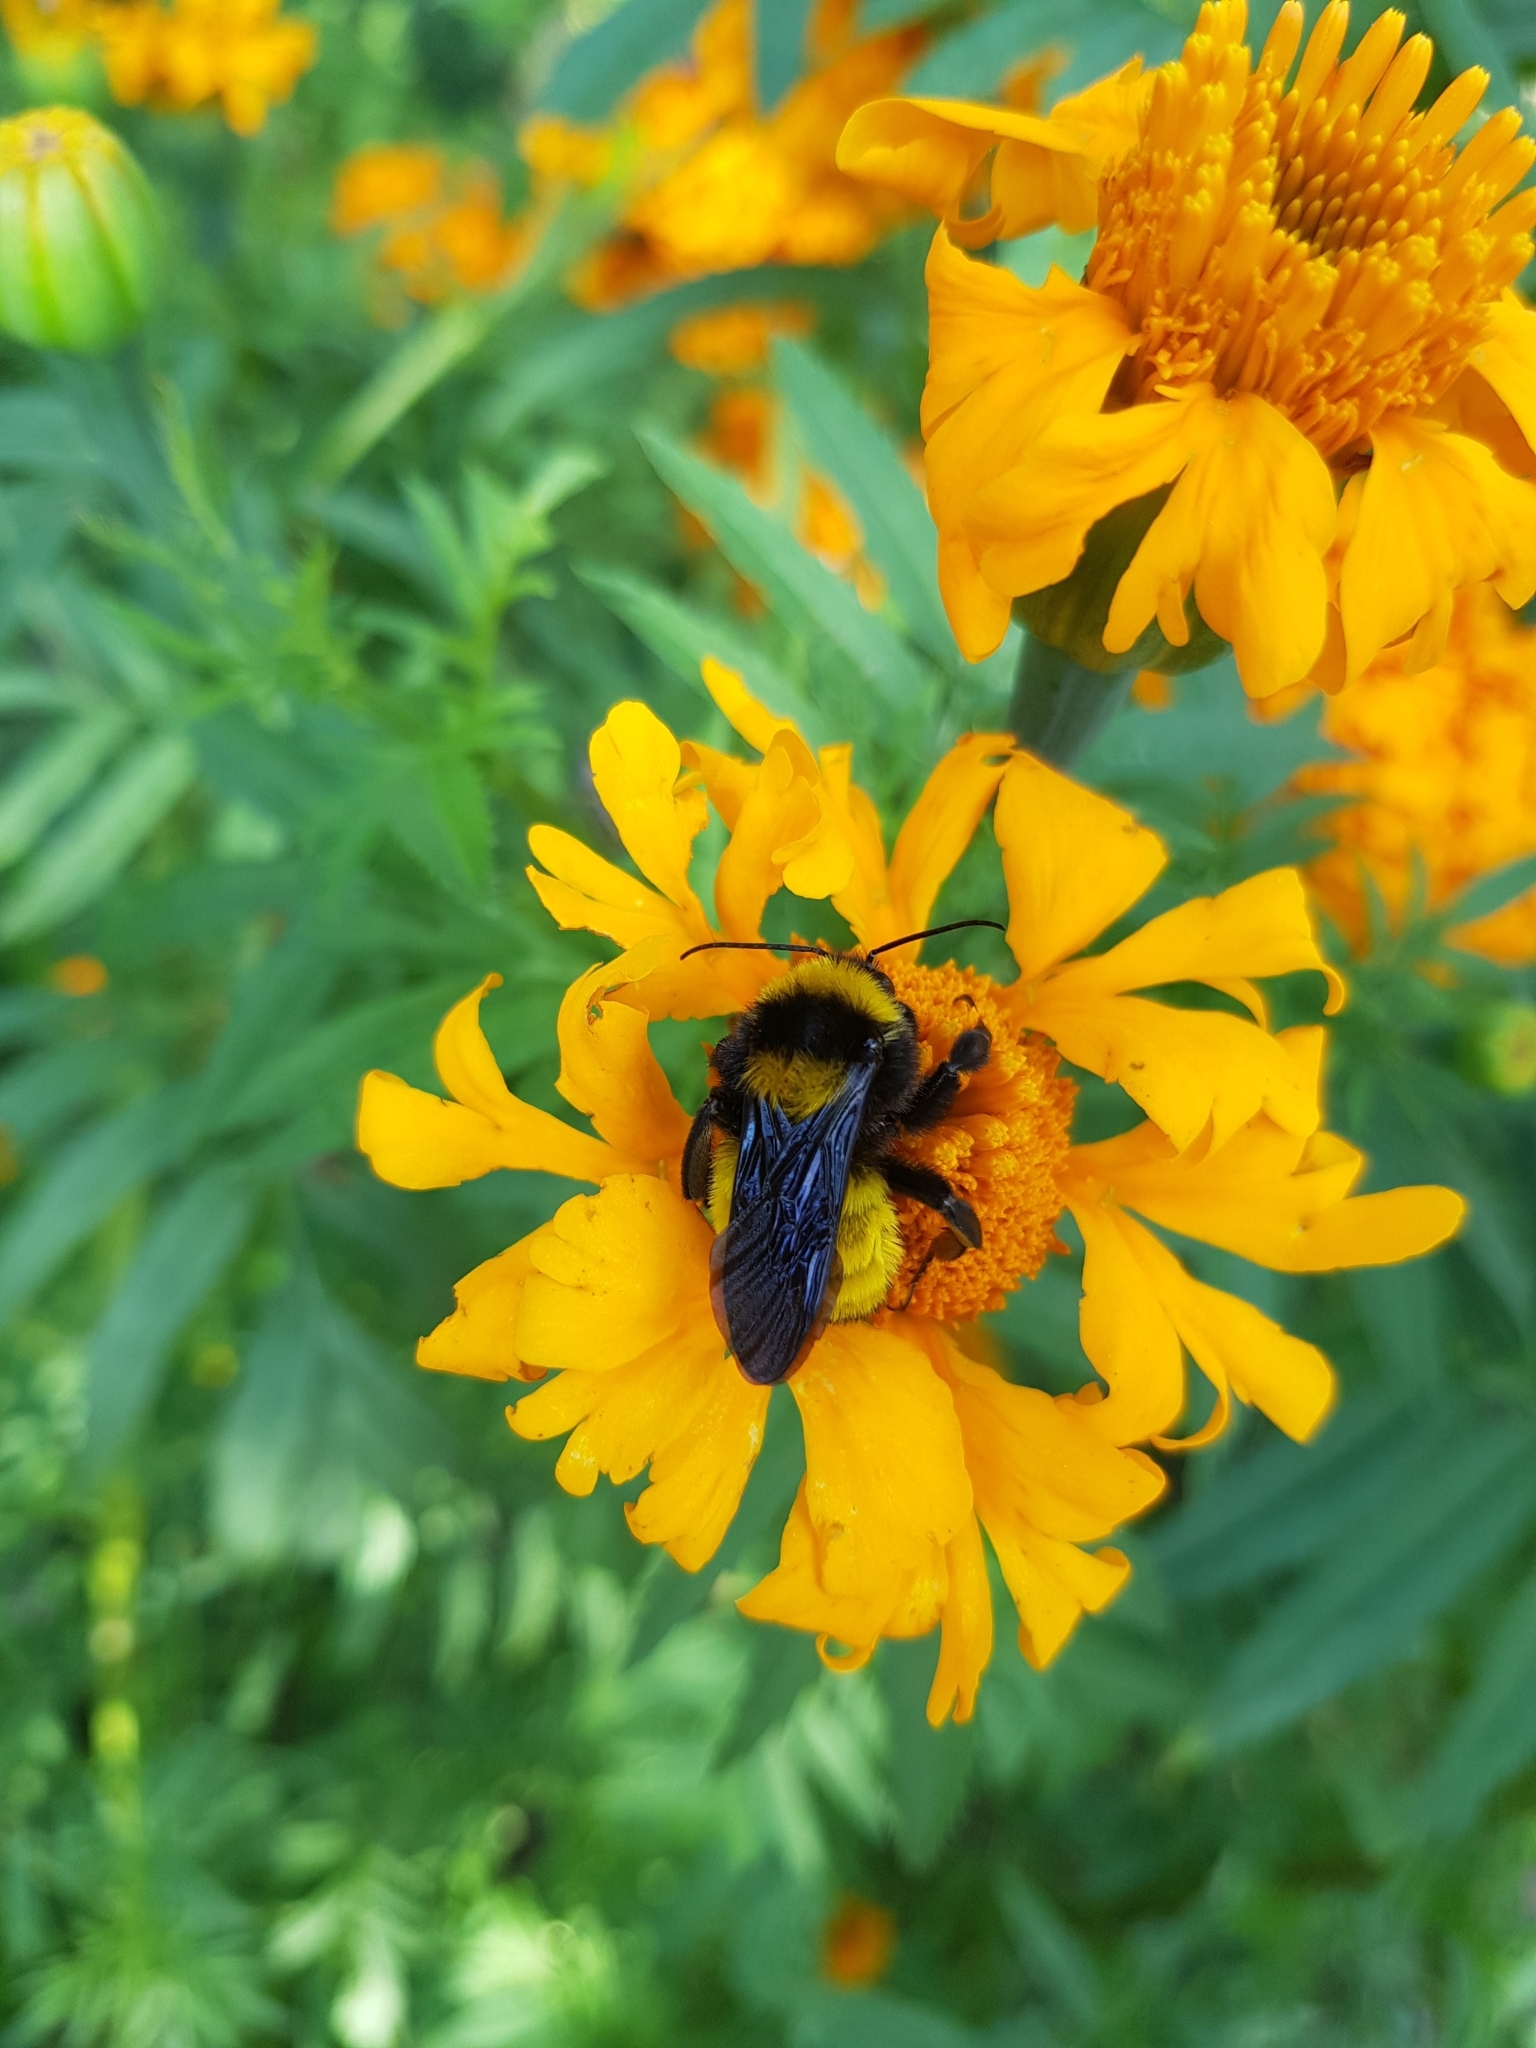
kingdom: Animalia
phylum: Arthropoda
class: Insecta
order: Hymenoptera
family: Apidae
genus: Bombus
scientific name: Bombus sonorus
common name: Sonoran bumble bee
